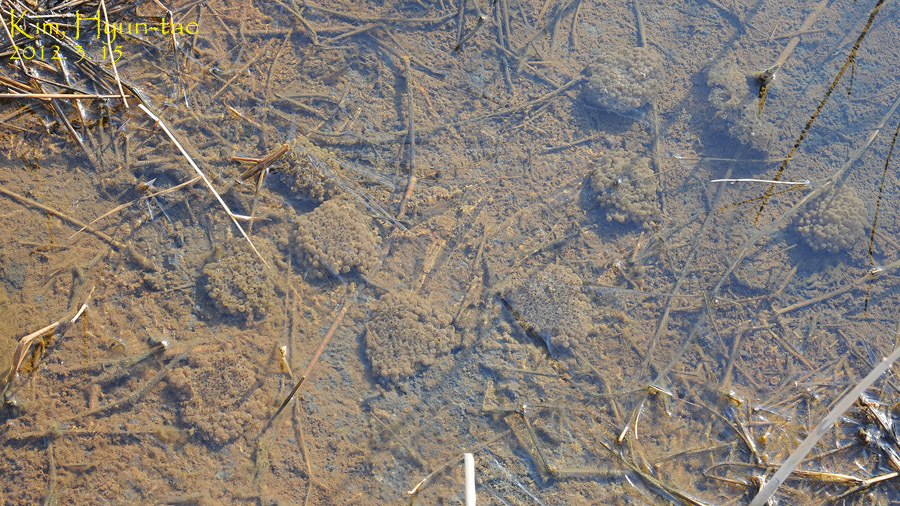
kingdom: Animalia
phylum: Chordata
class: Amphibia
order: Anura
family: Ranidae
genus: Rana
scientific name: Rana coreana
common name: Korean brown frog
